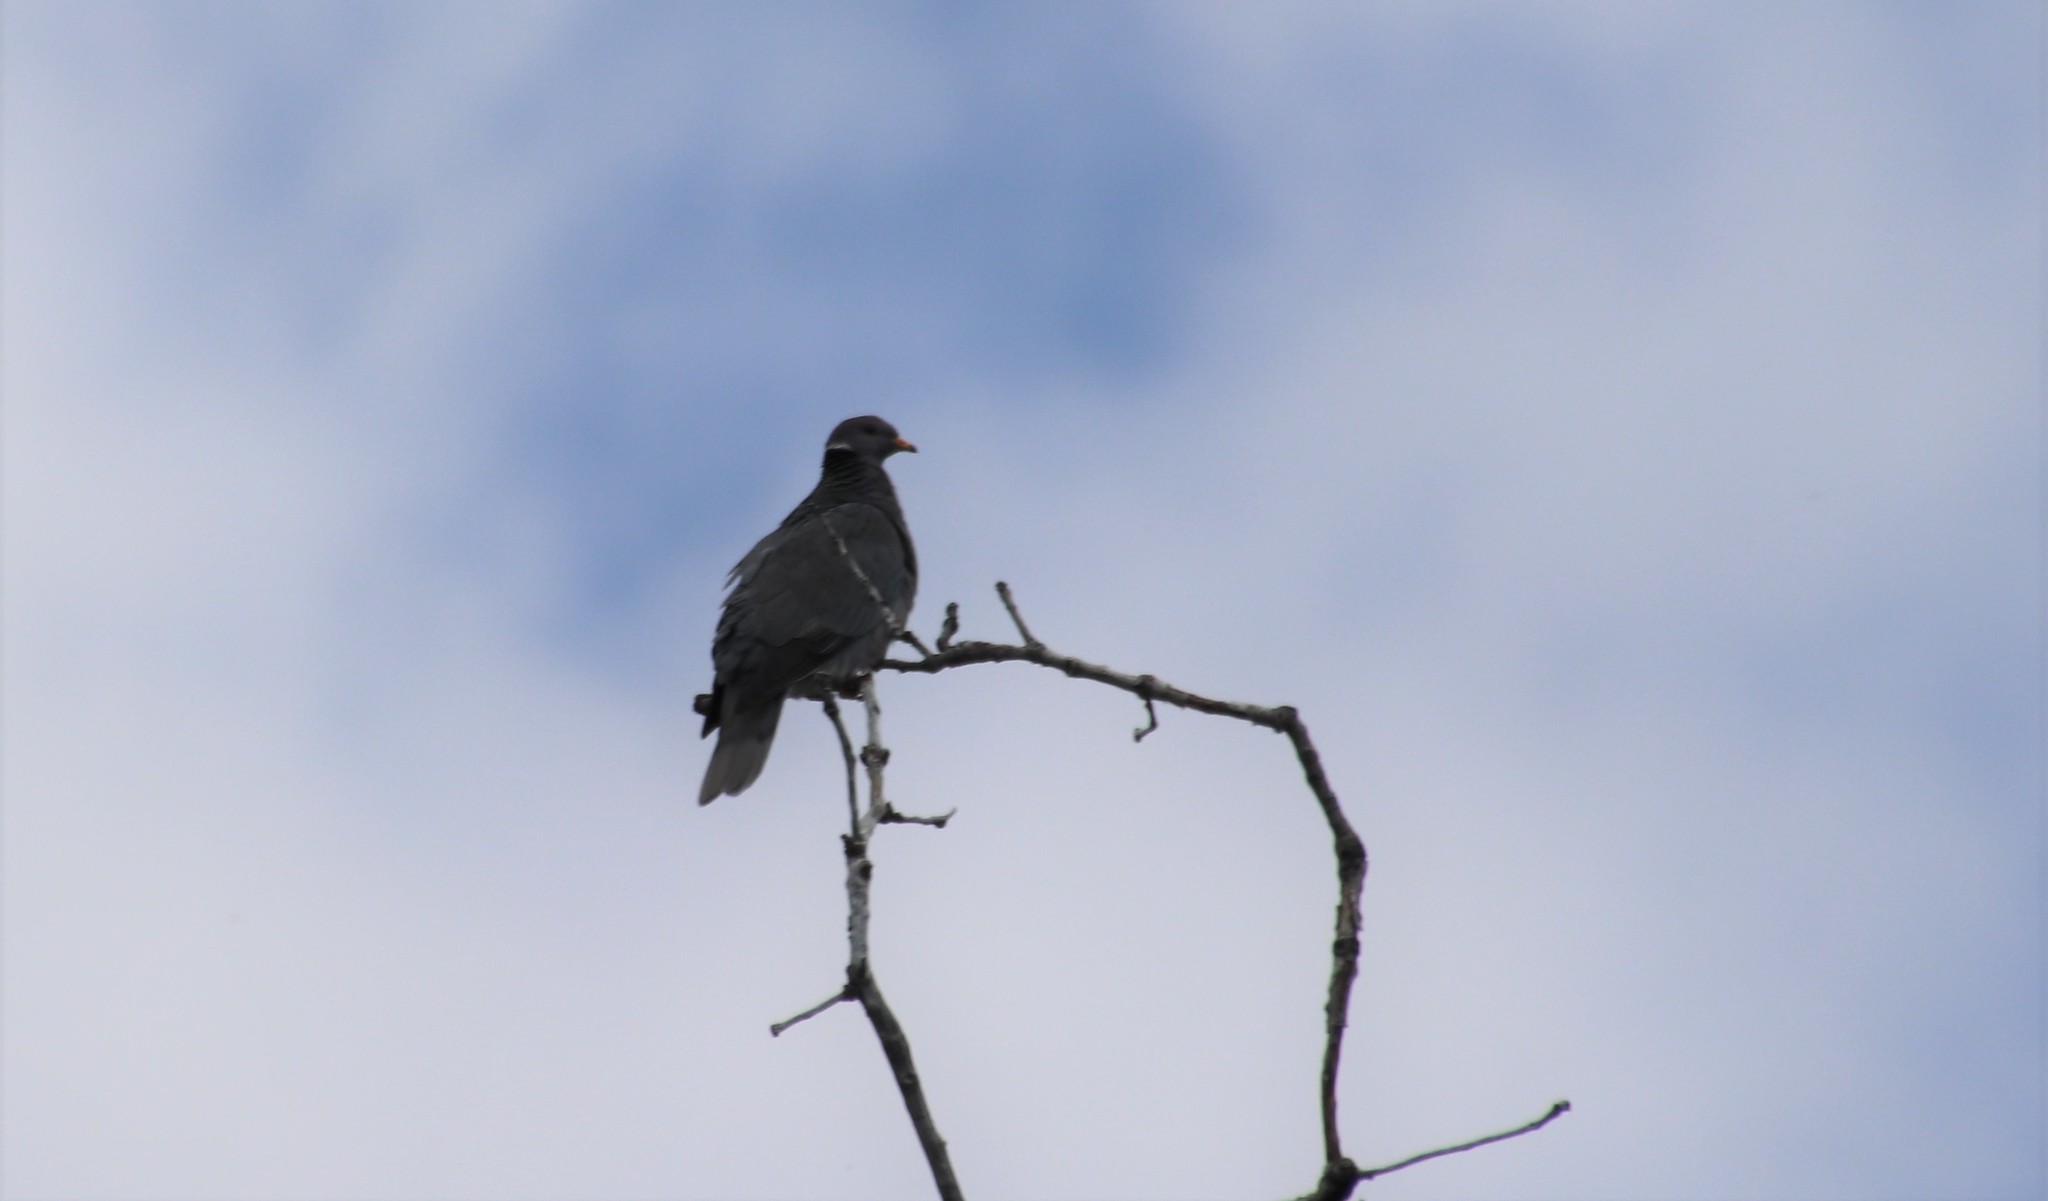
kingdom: Animalia
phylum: Chordata
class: Aves
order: Columbiformes
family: Columbidae
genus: Patagioenas
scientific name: Patagioenas fasciata
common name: Band-tailed pigeon
